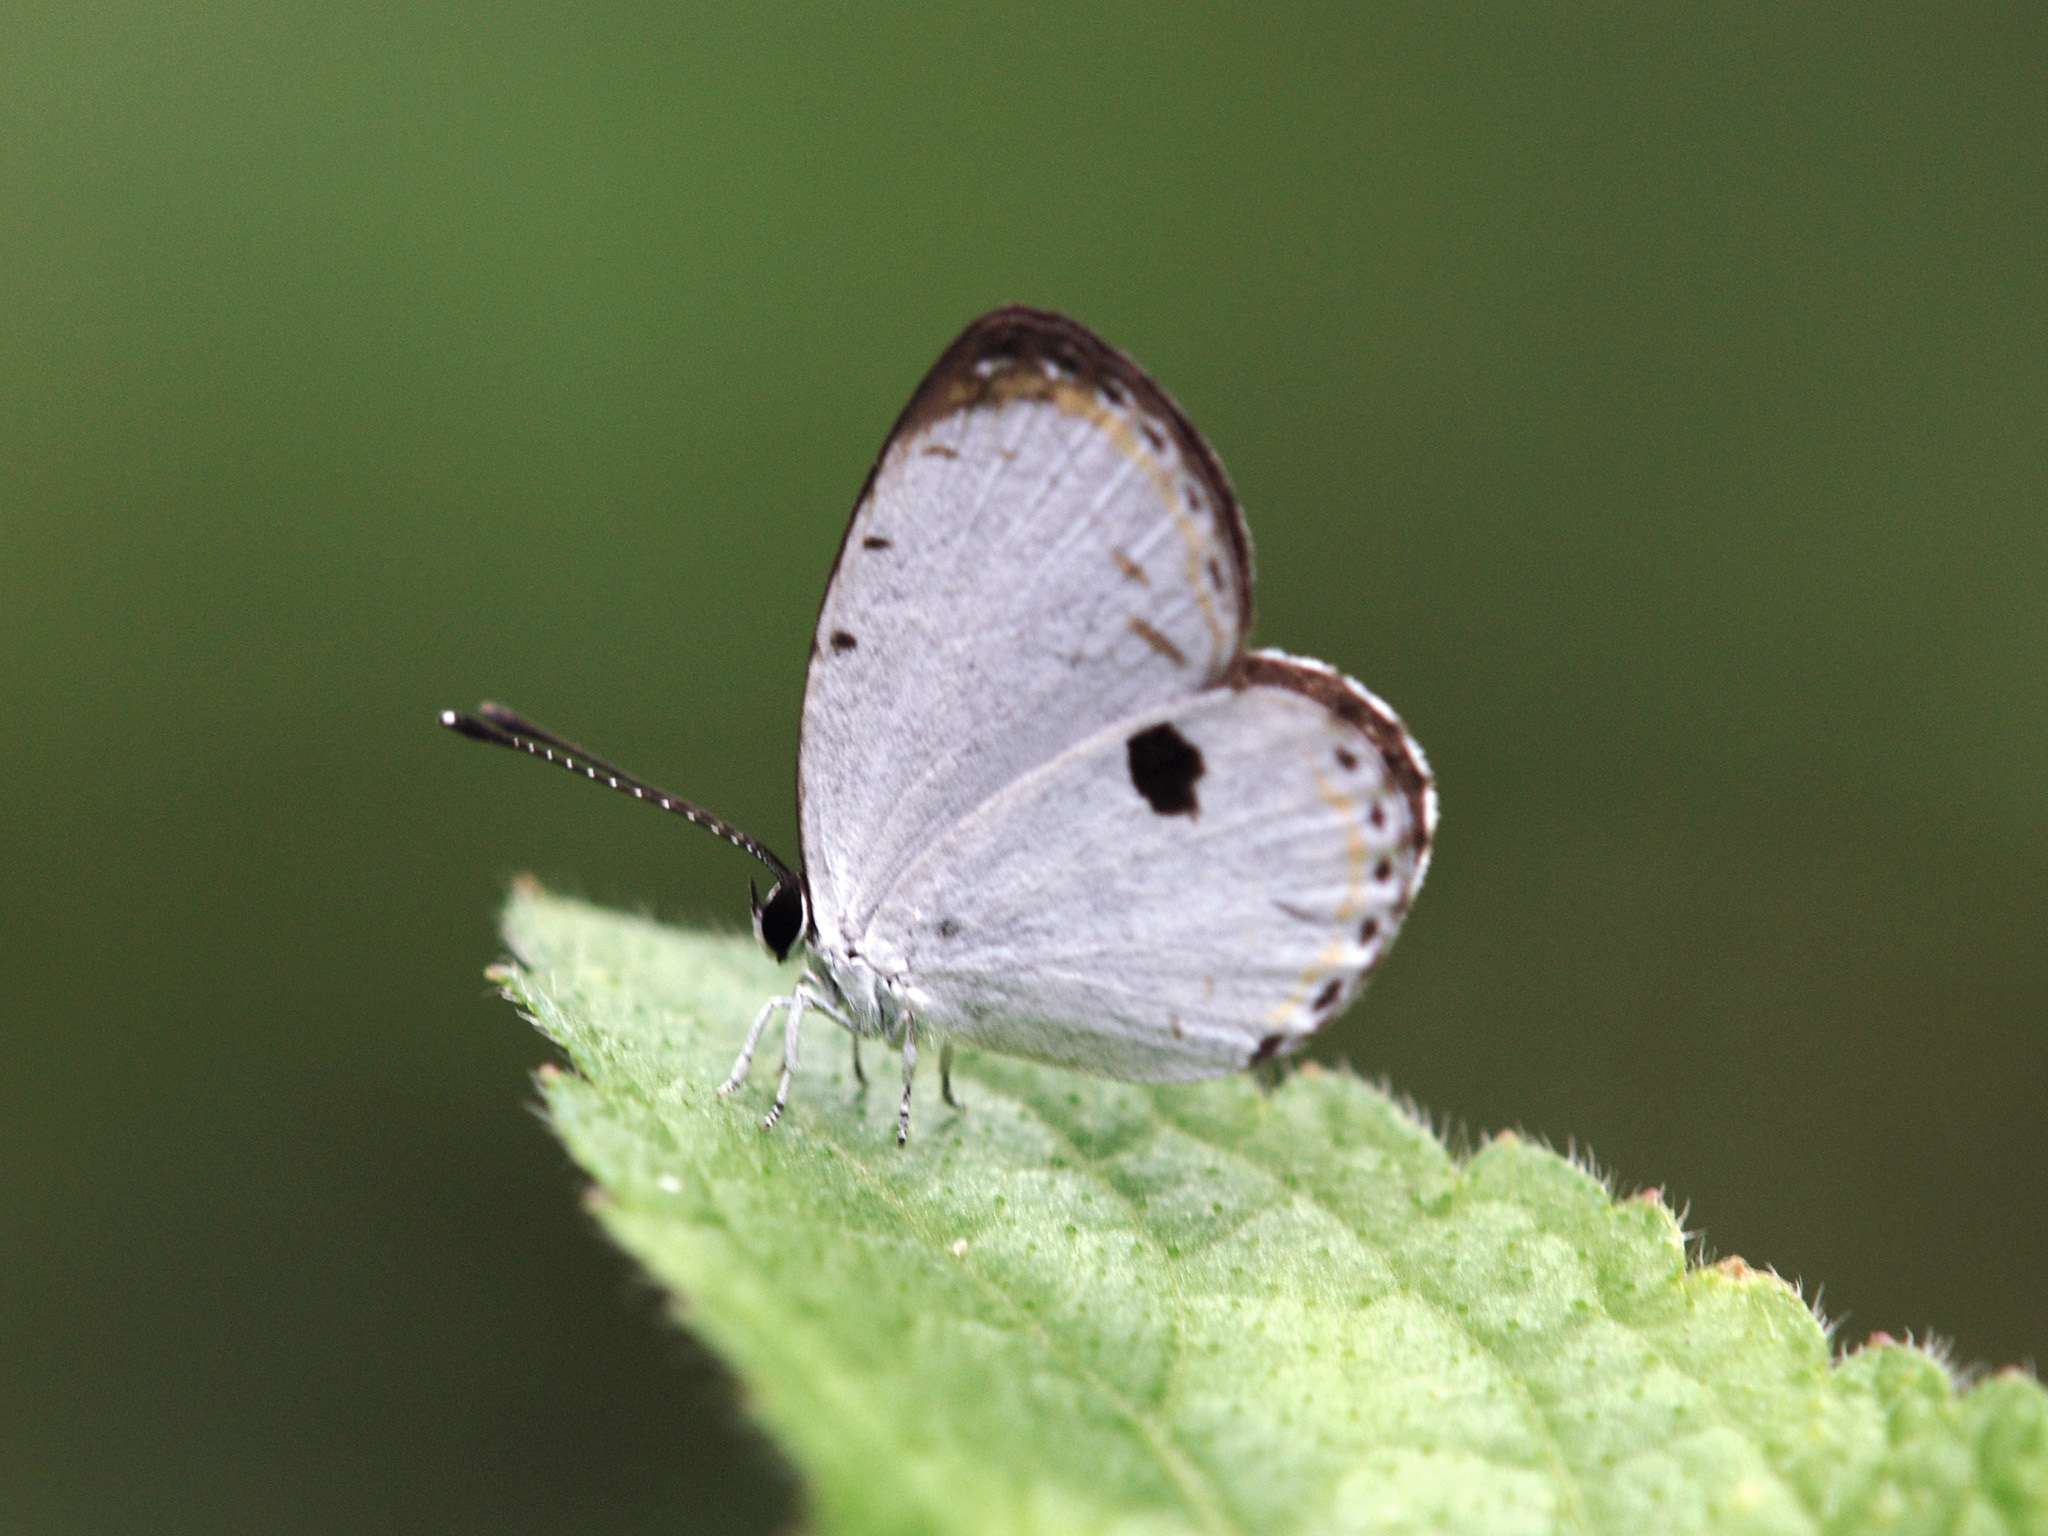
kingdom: Animalia
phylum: Arthropoda
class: Insecta
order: Lepidoptera
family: Lycaenidae
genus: Pithecops
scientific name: Pithecops corvus
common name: Forest quaker
